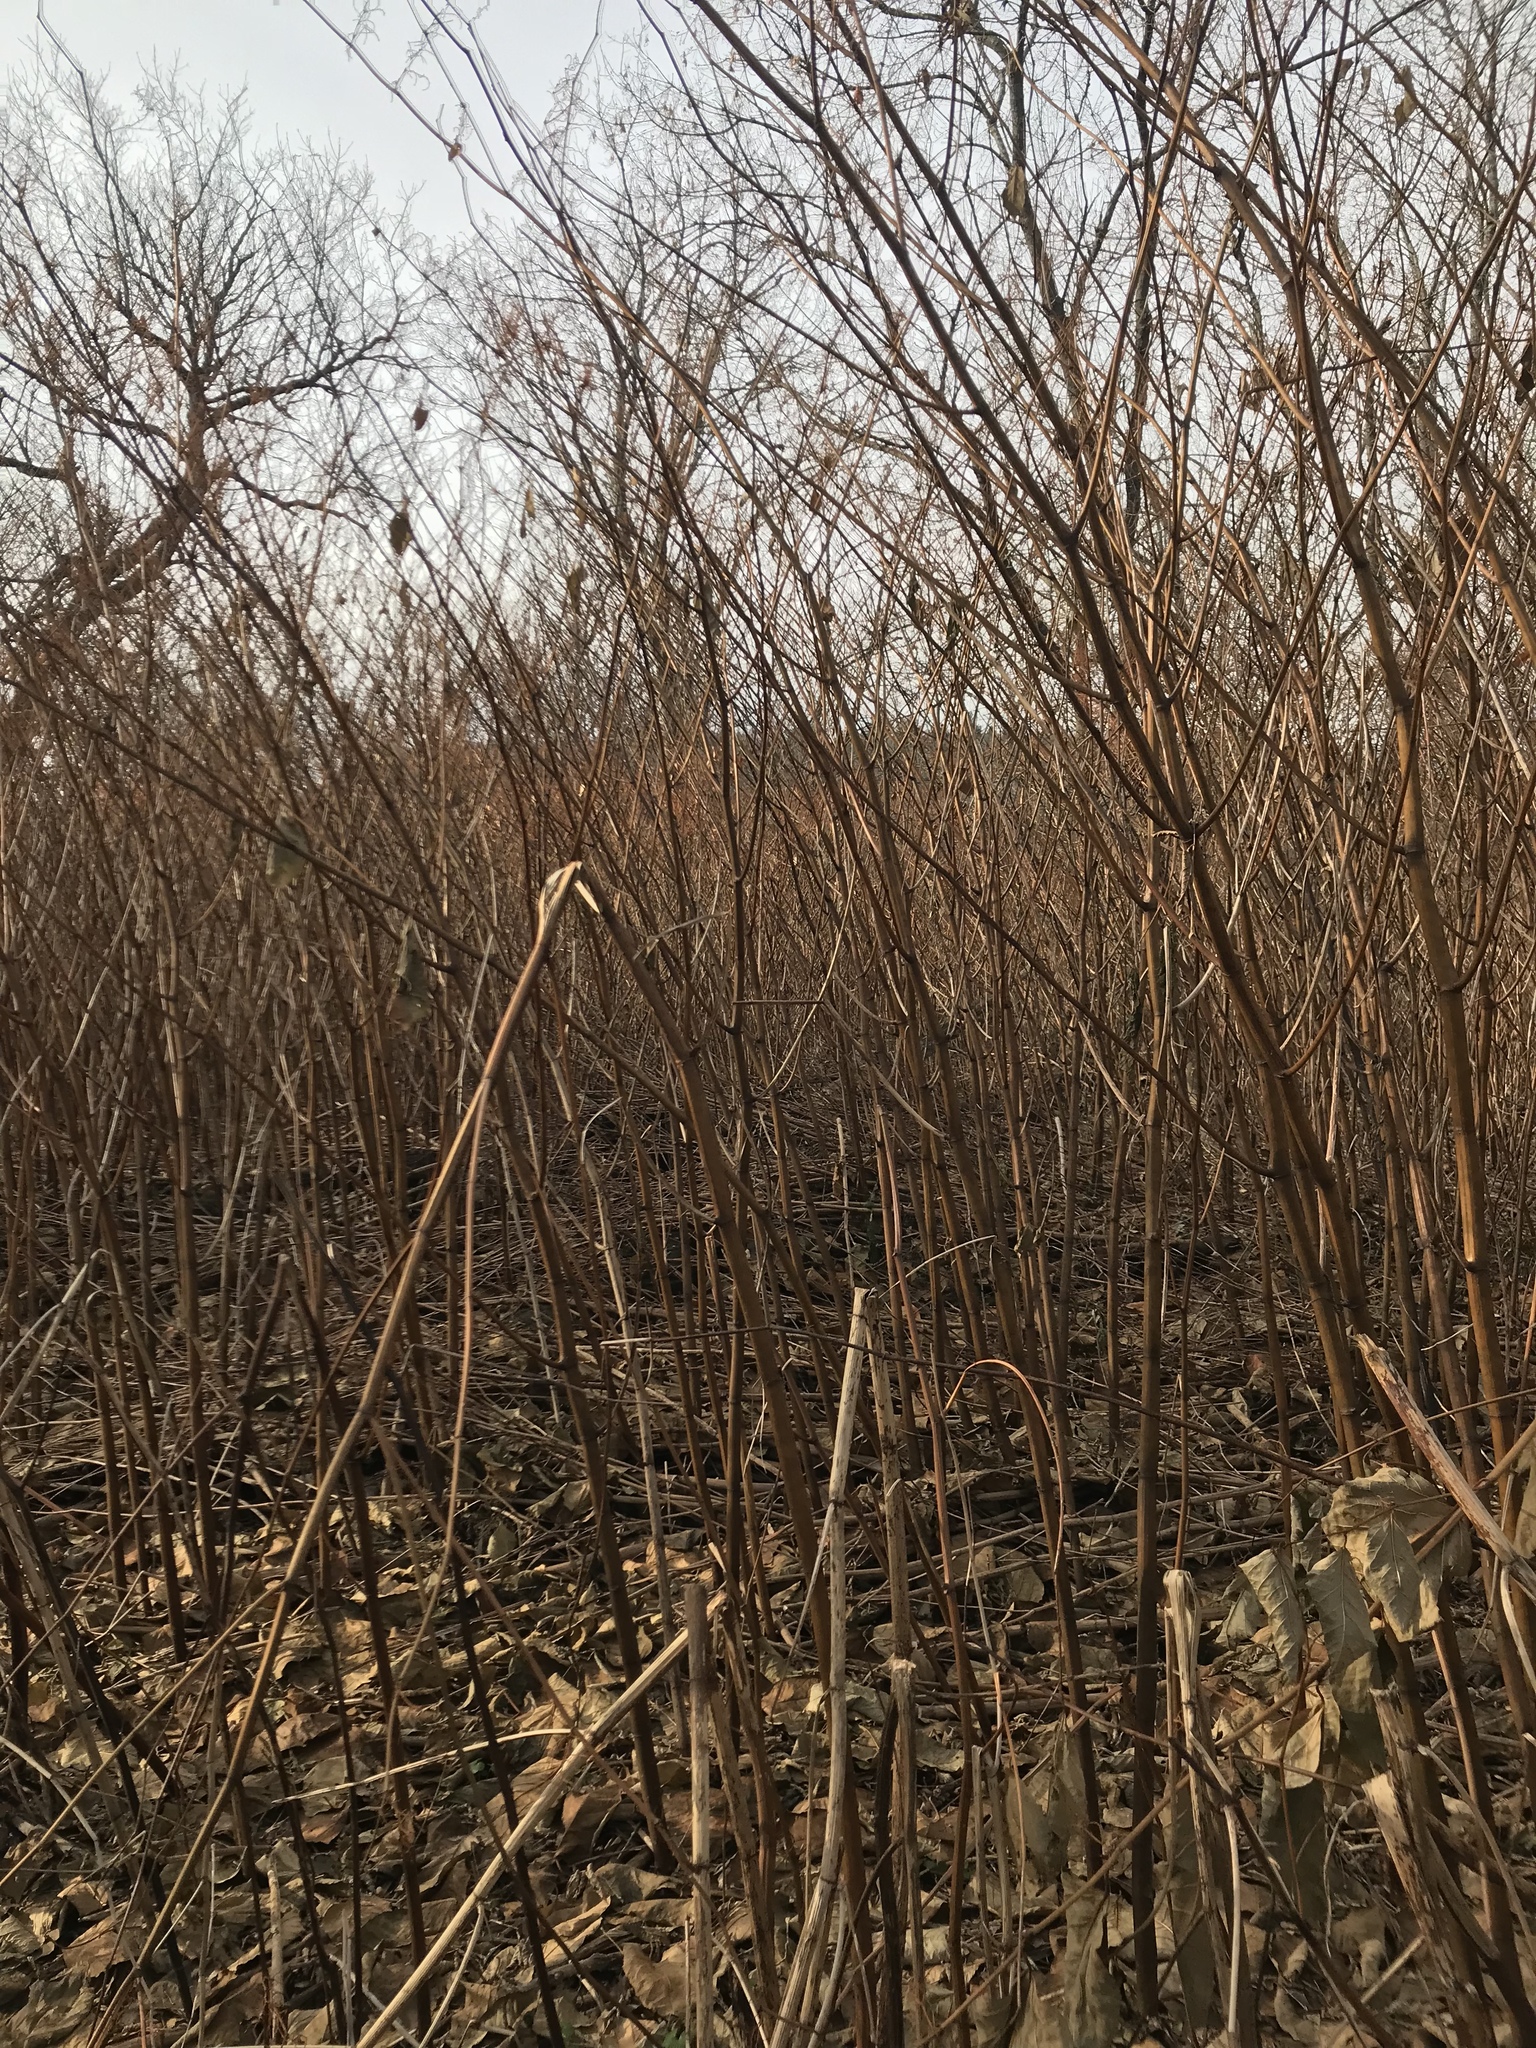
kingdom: Plantae
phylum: Tracheophyta
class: Magnoliopsida
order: Caryophyllales
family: Polygonaceae
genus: Reynoutria
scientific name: Reynoutria japonica
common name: Japanese knotweed
